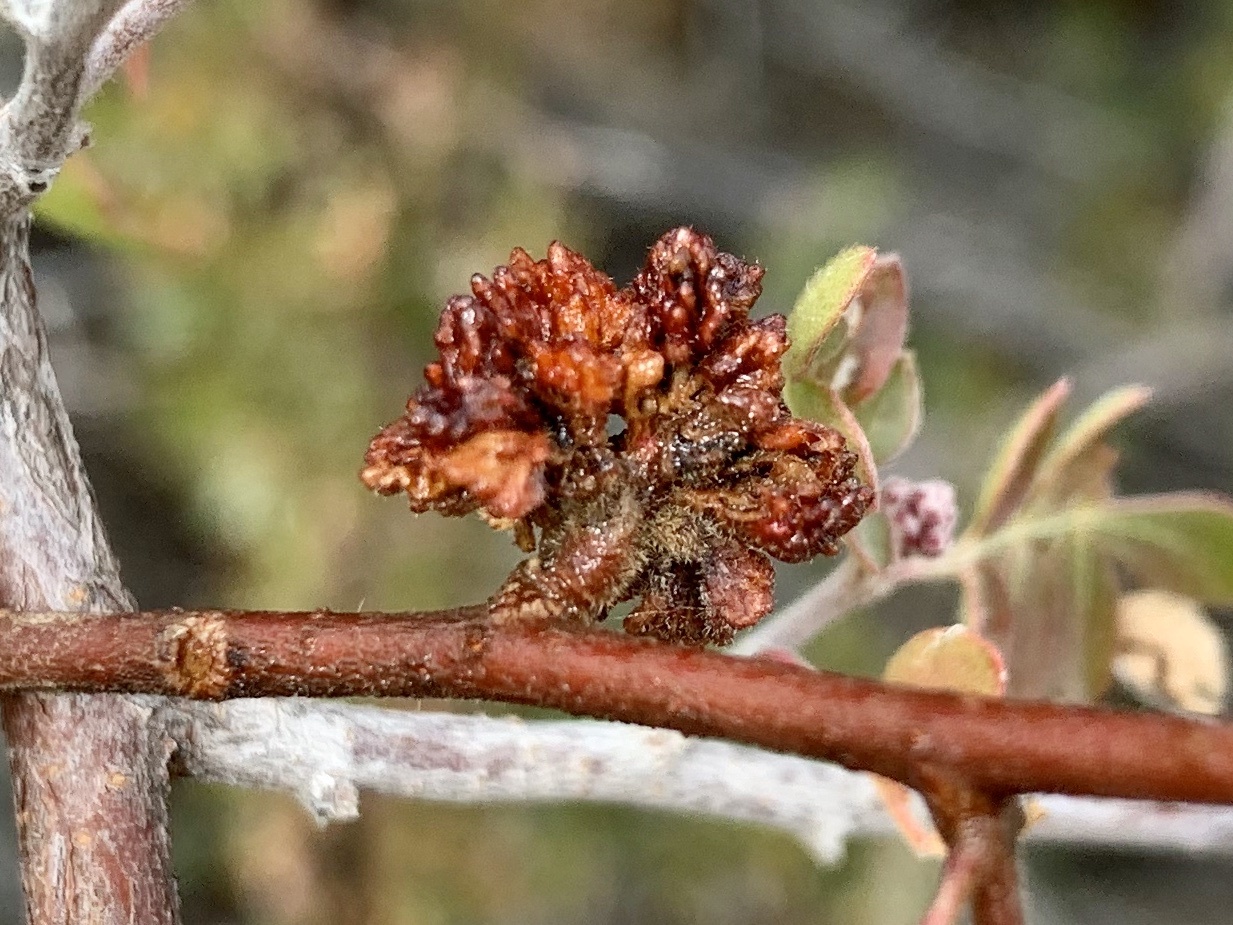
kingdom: Animalia
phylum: Arthropoda
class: Arachnida
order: Trombidiformes
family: Eriophyidae
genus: Aculops
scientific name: Aculops
